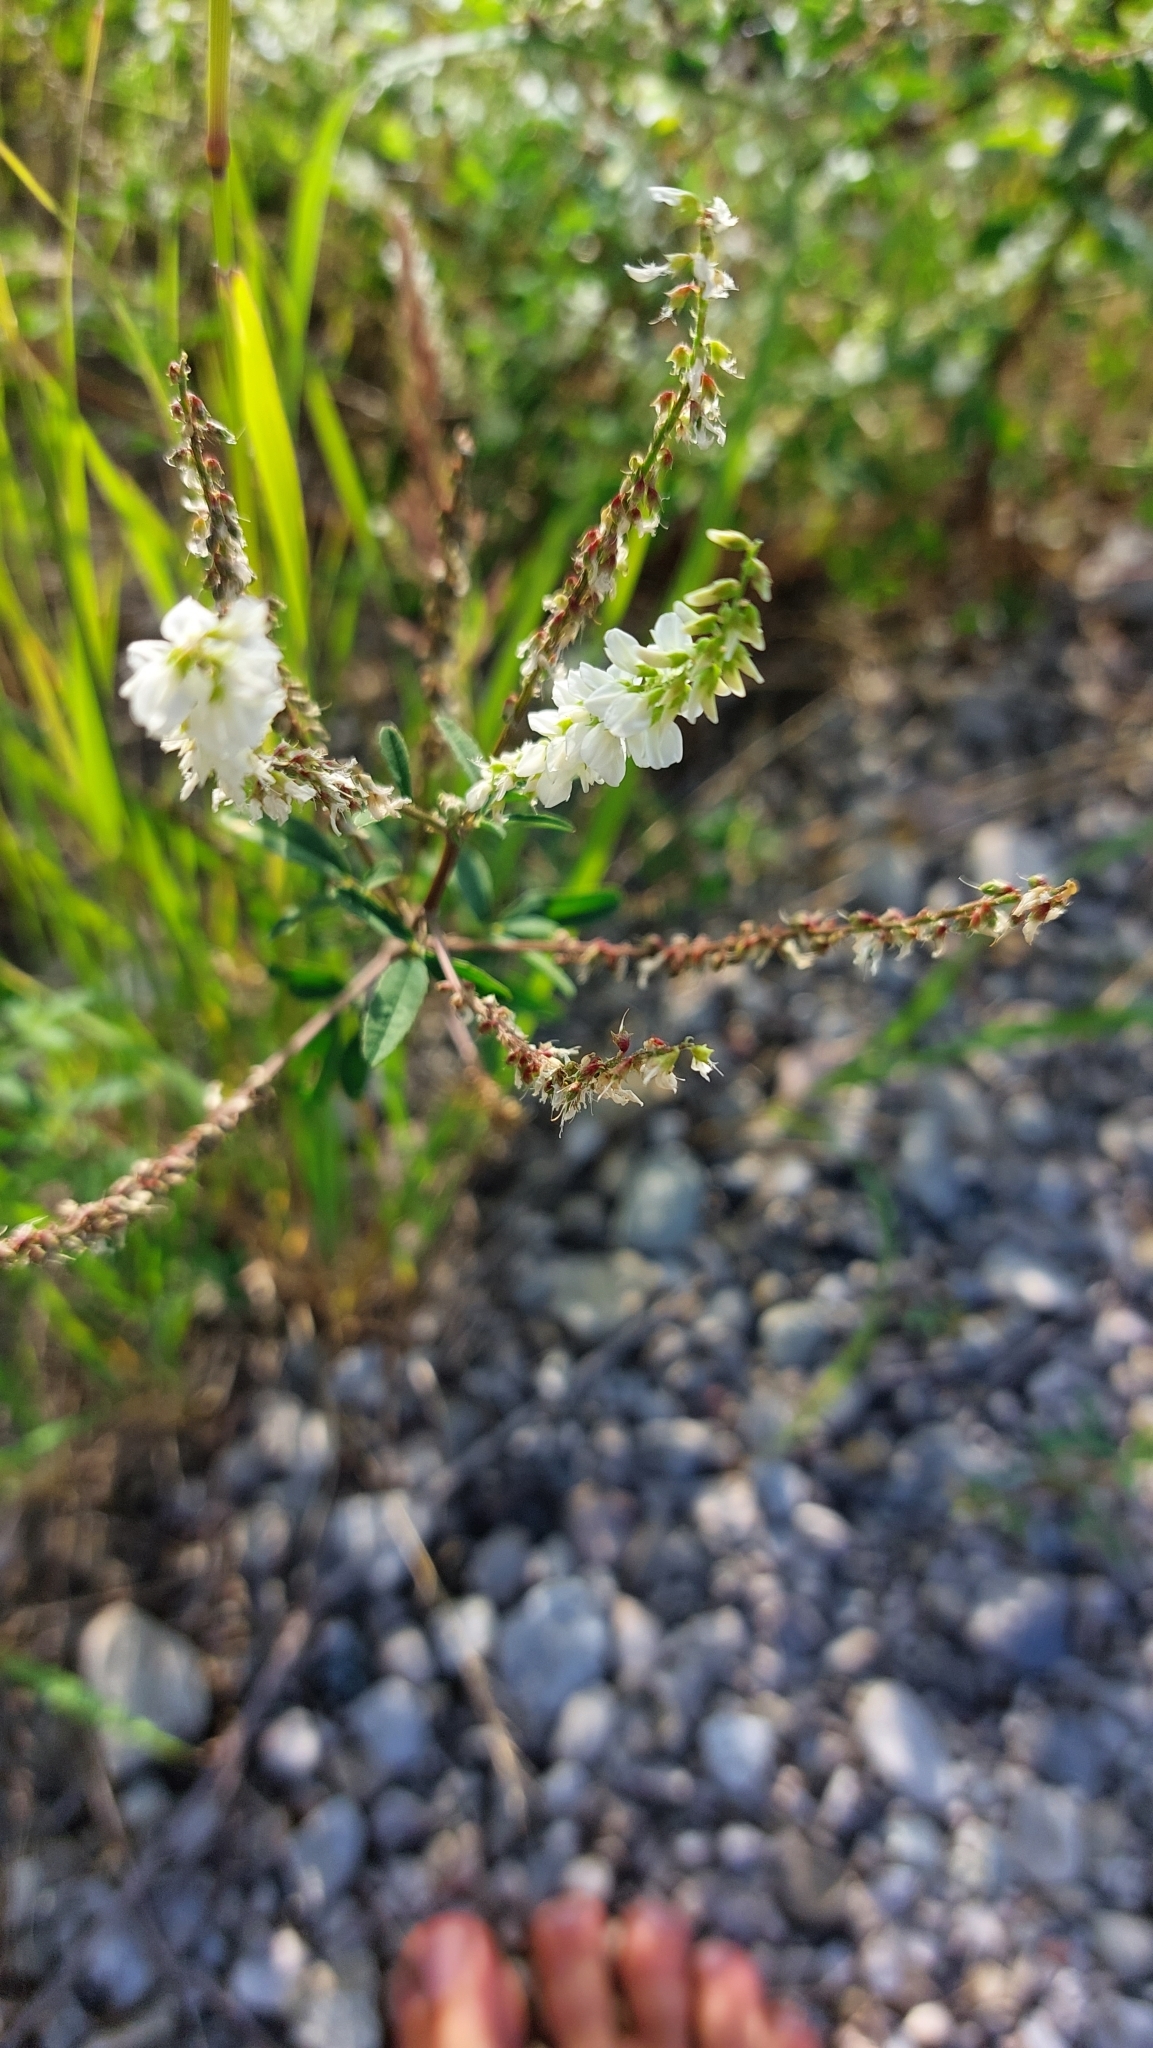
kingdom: Plantae
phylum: Tracheophyta
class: Magnoliopsida
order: Fabales
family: Fabaceae
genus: Melilotus
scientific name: Melilotus albus
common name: White melilot
